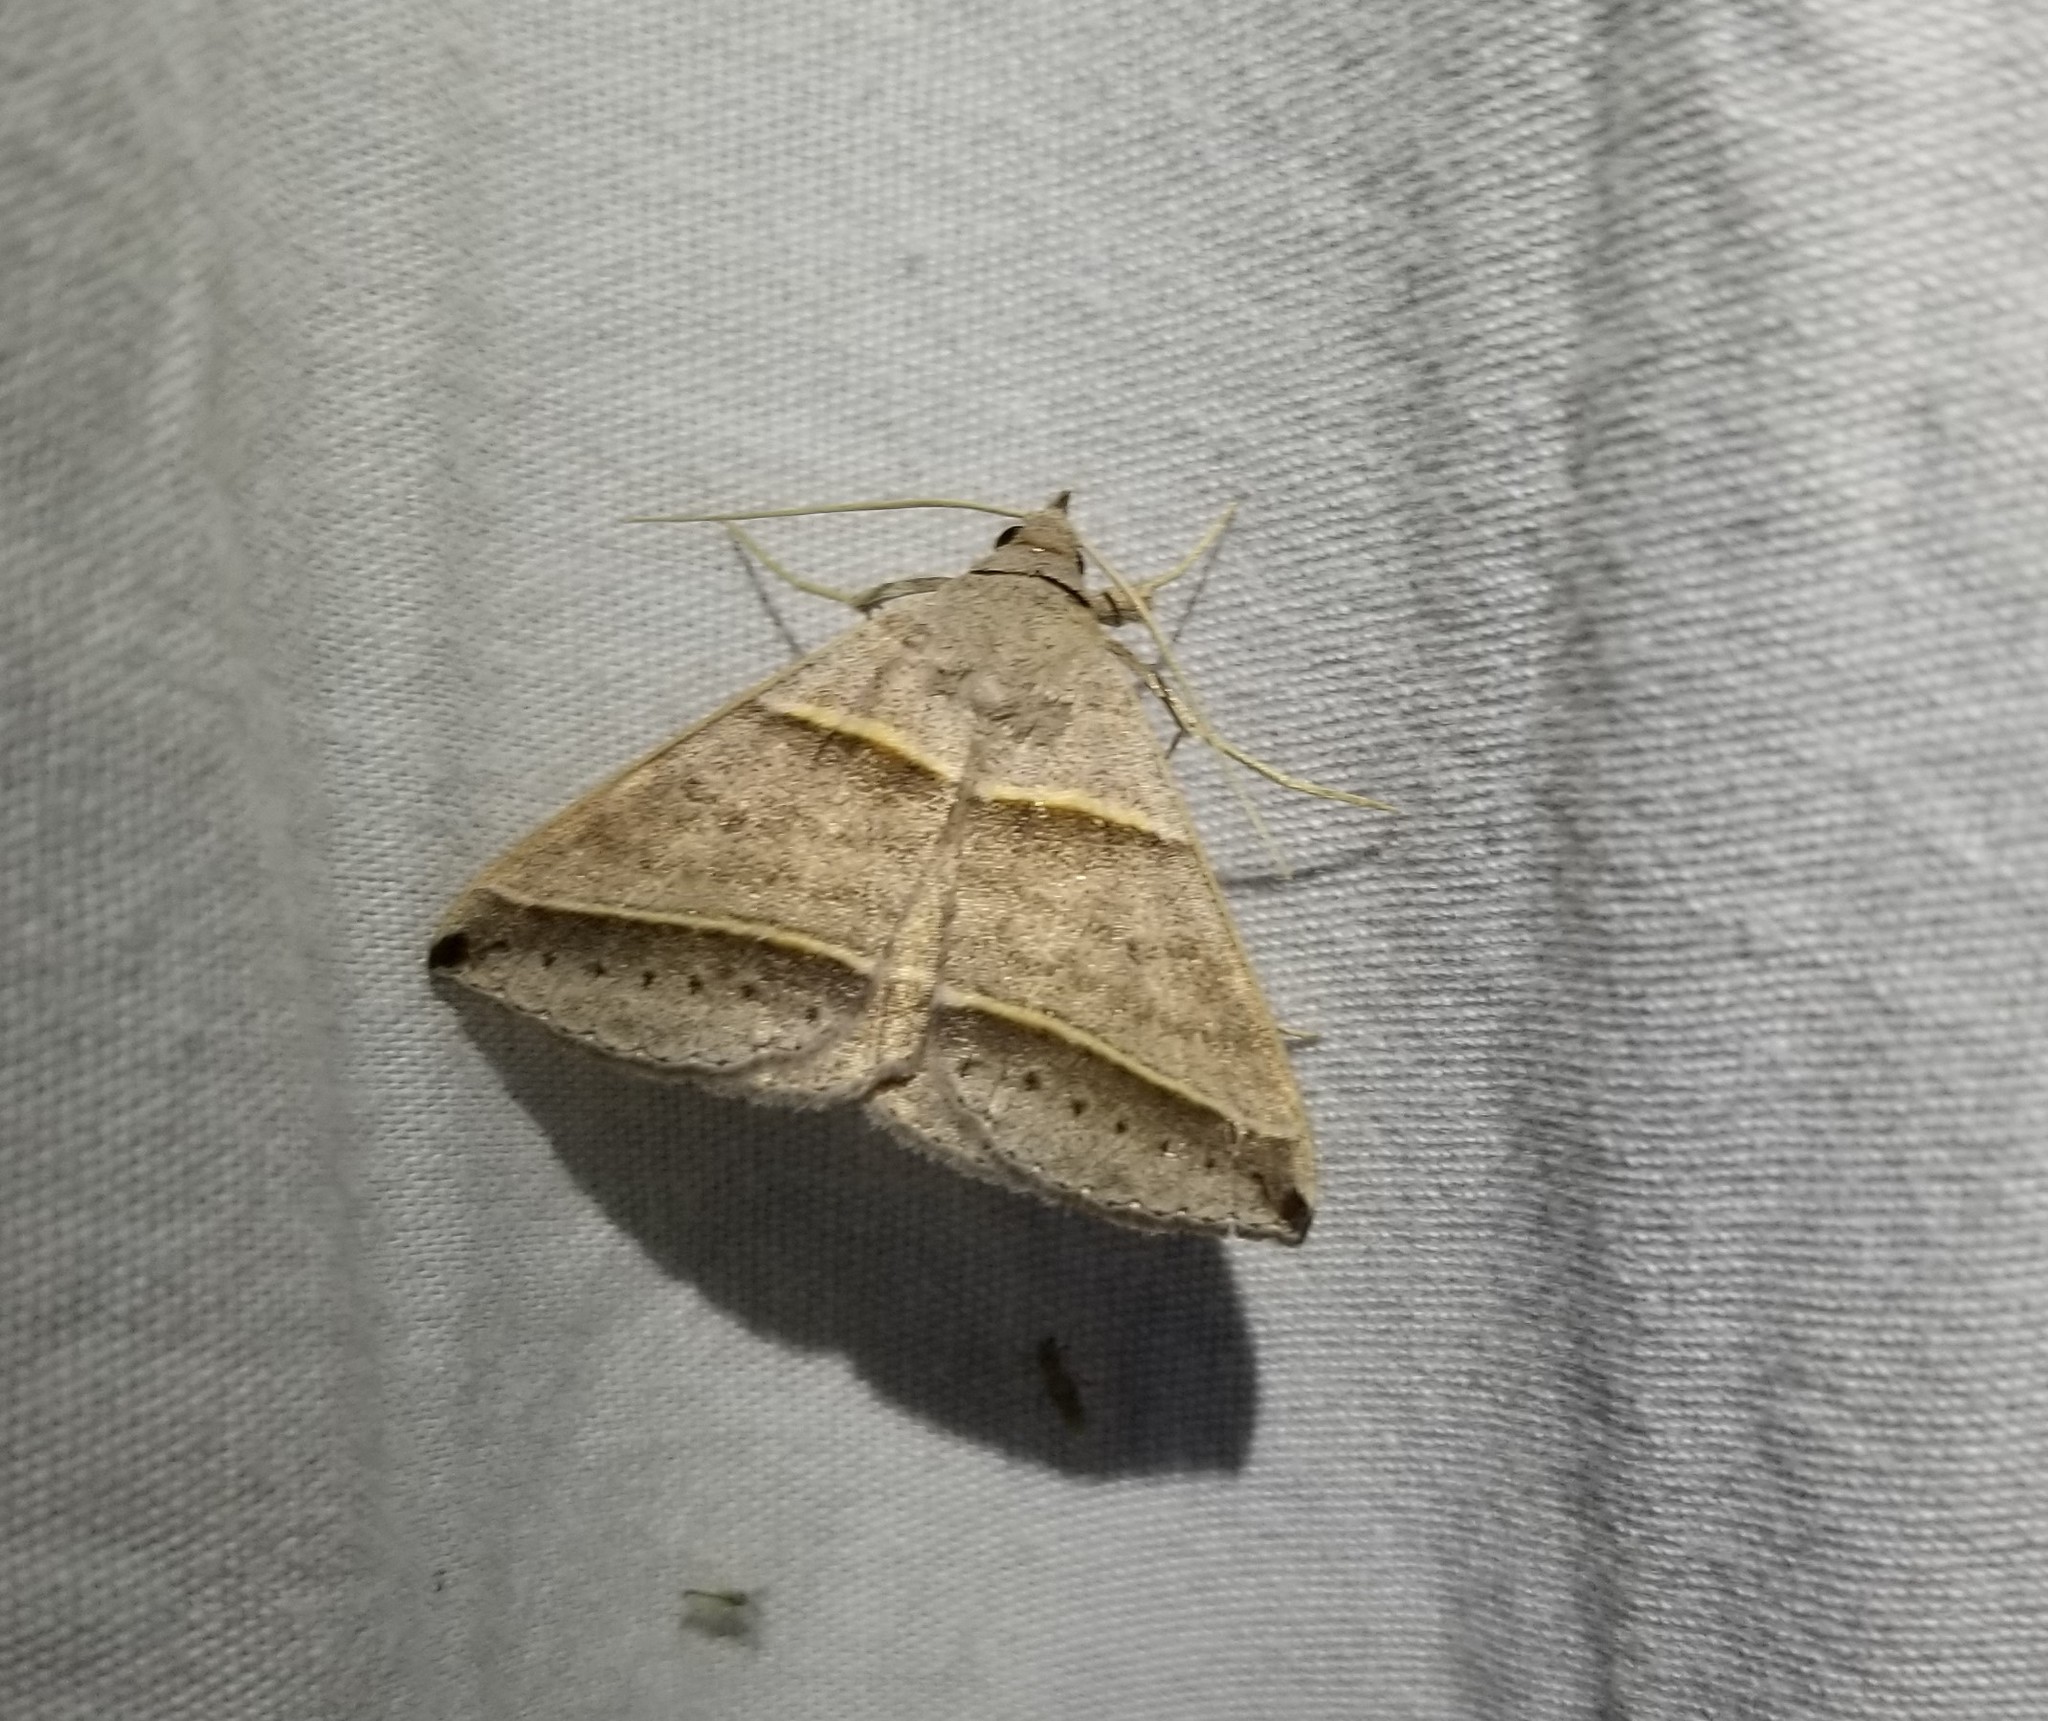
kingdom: Animalia
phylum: Arthropoda
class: Insecta
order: Lepidoptera
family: Erebidae
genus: Ptichodis
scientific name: Ptichodis vinculum
